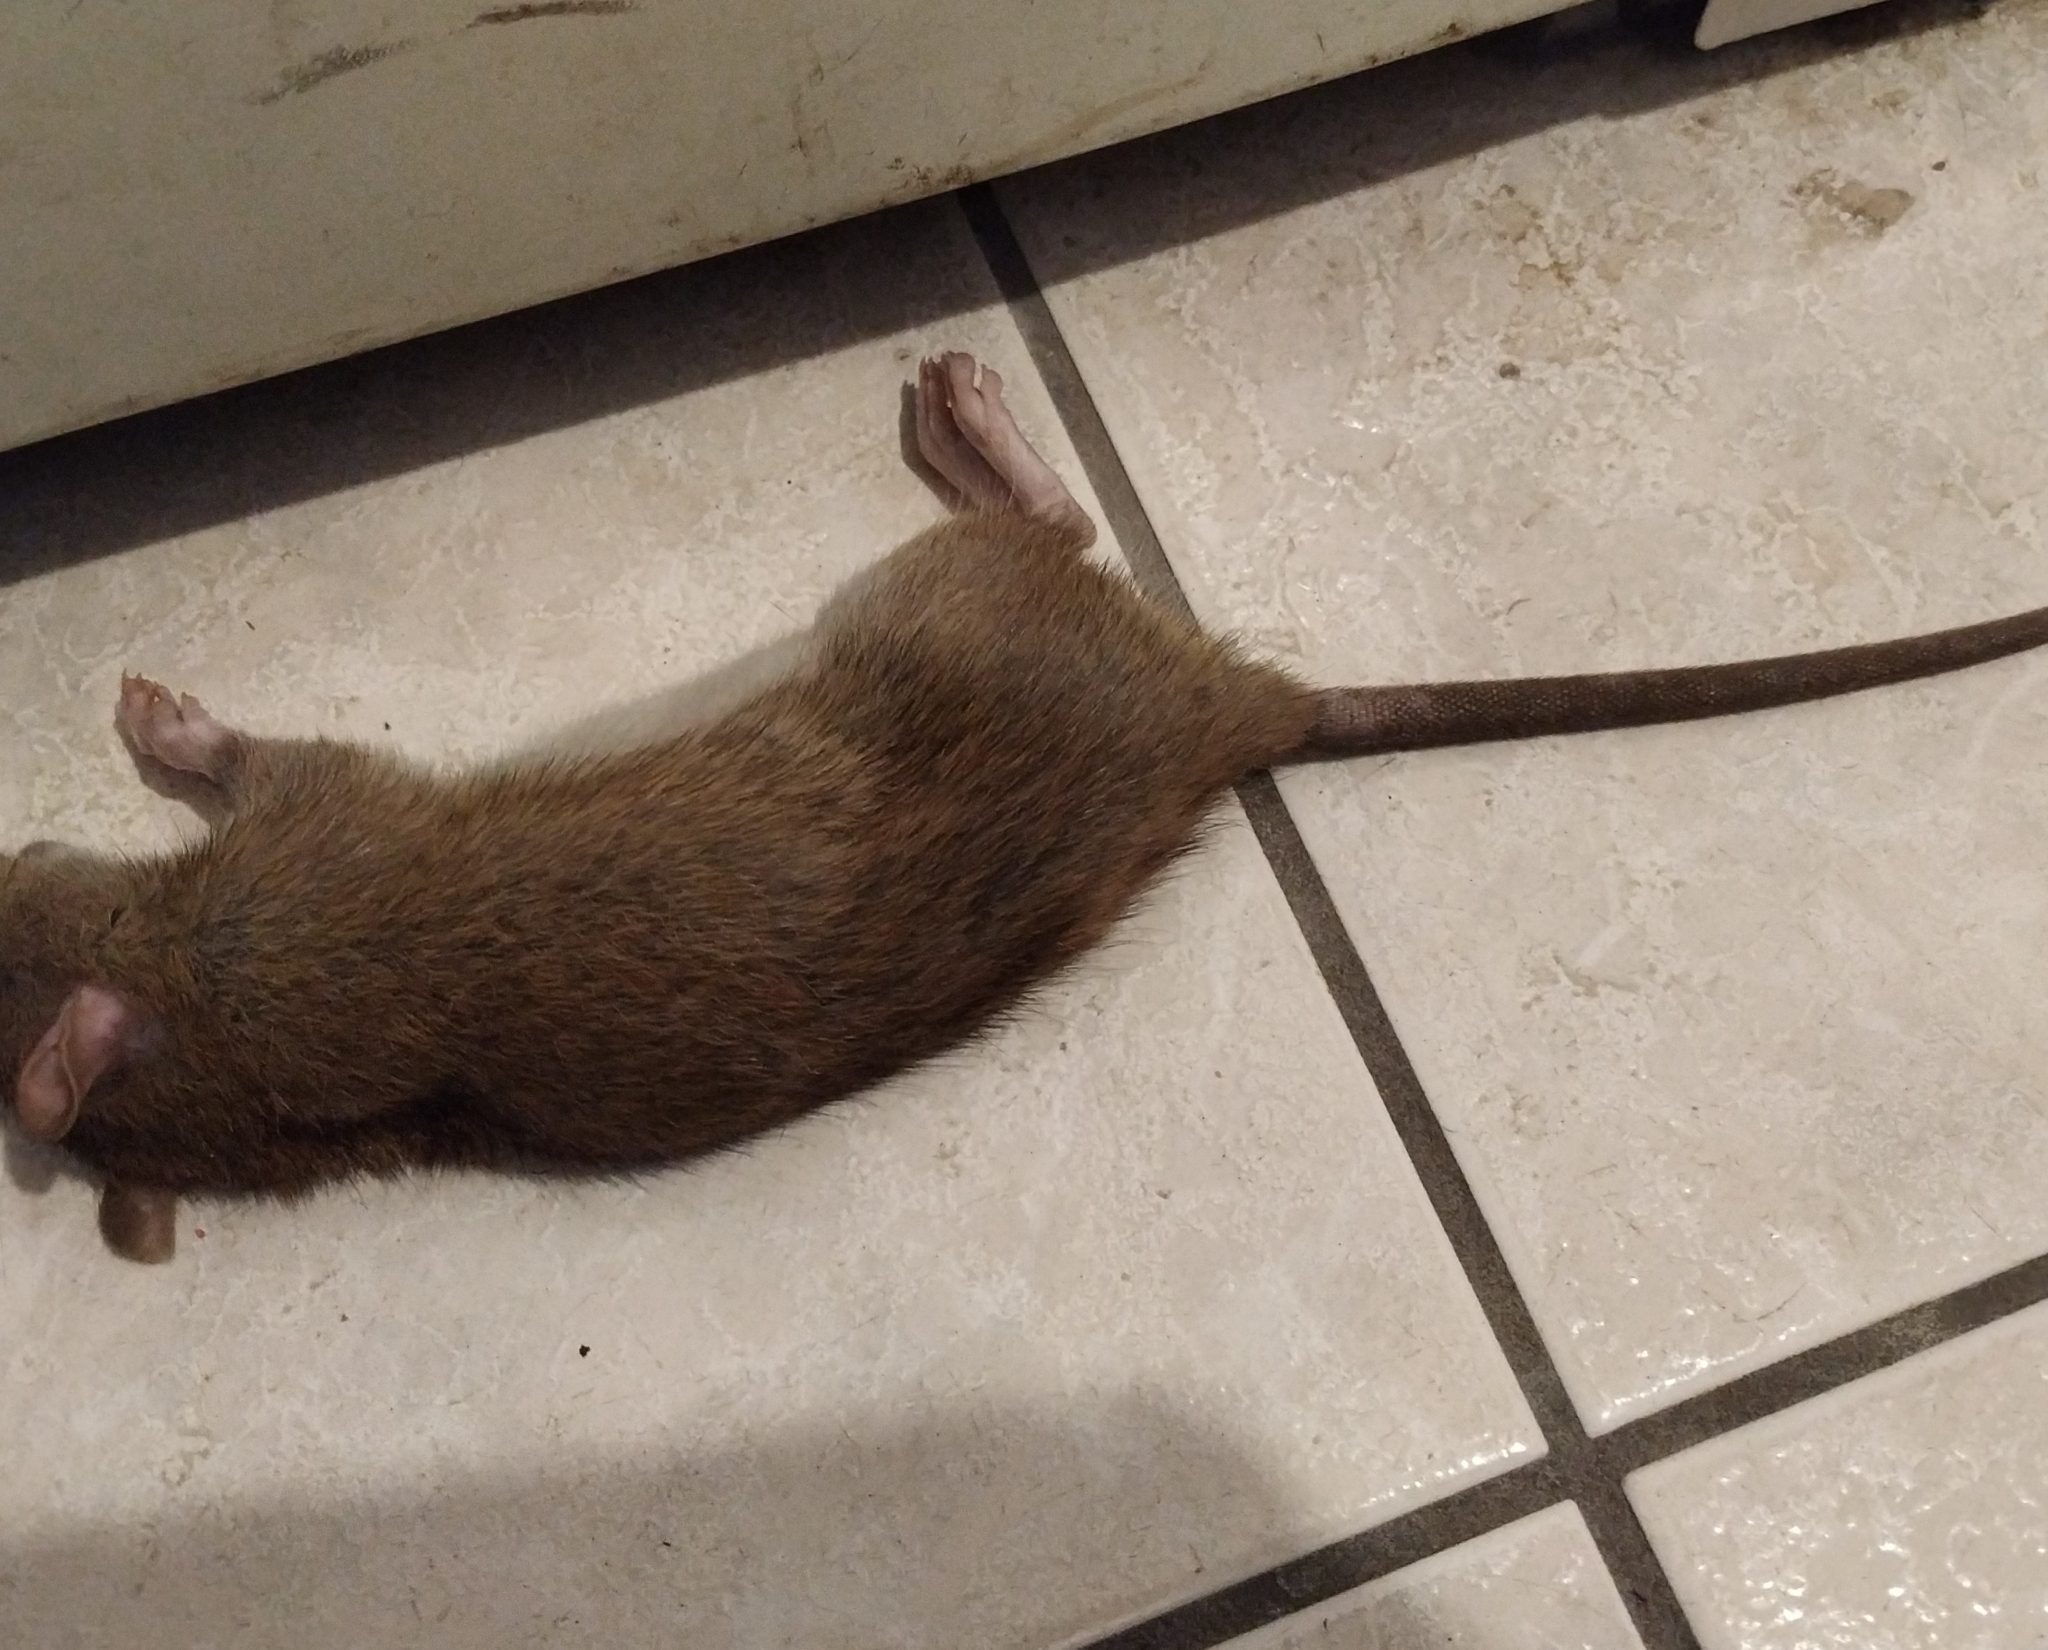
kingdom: Animalia
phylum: Chordata
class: Mammalia
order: Rodentia
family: Muridae
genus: Rattus
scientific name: Rattus norvegicus
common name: Brown rat
